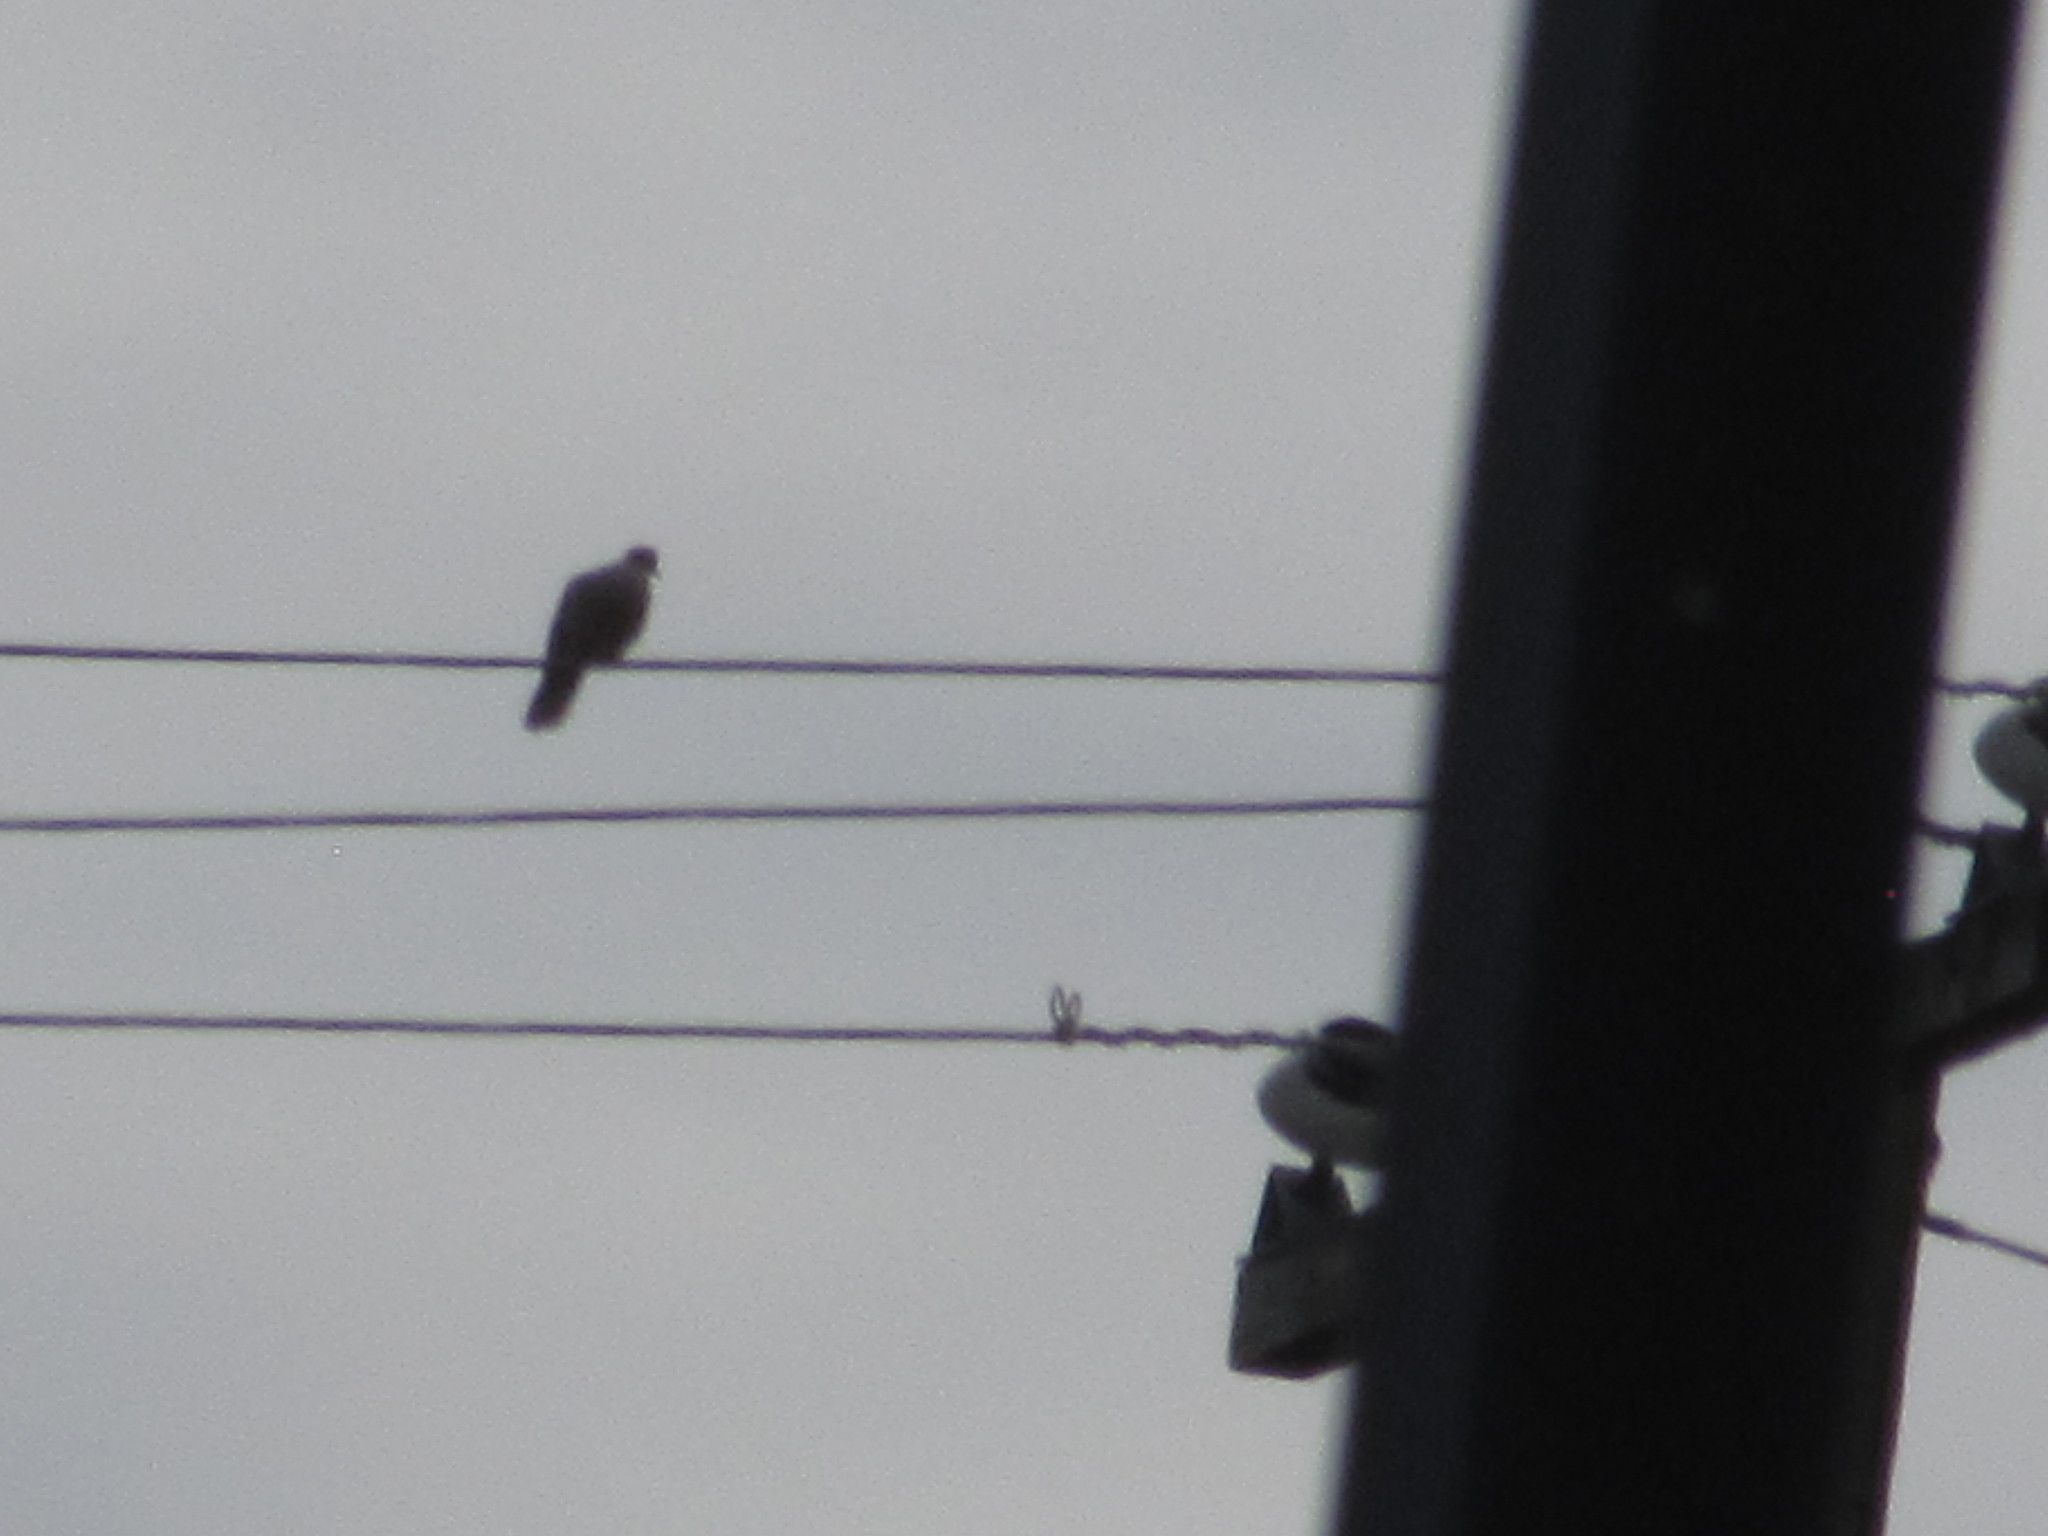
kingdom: Animalia
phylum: Chordata
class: Aves
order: Columbiformes
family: Columbidae
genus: Streptopelia
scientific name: Streptopelia decaocto
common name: Eurasian collared dove
